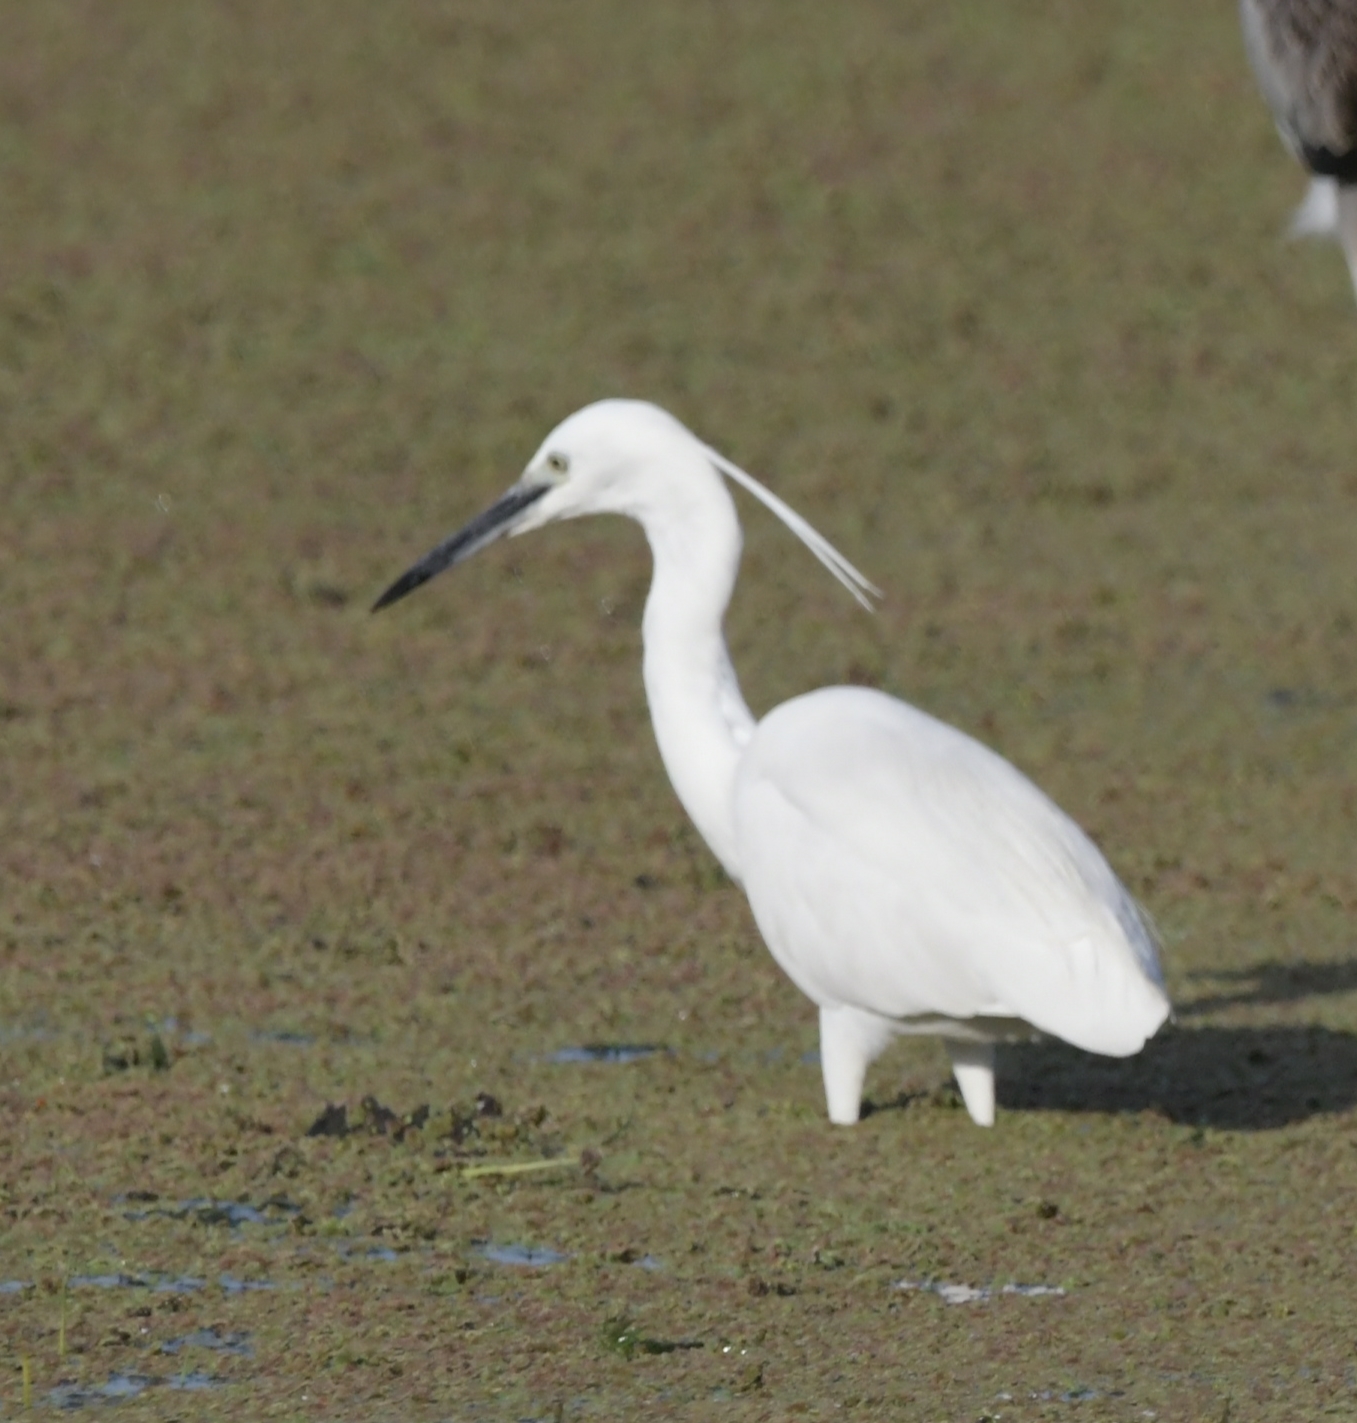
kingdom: Animalia
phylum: Chordata
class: Aves
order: Pelecaniformes
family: Ardeidae
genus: Egretta
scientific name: Egretta garzetta
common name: Little egret
